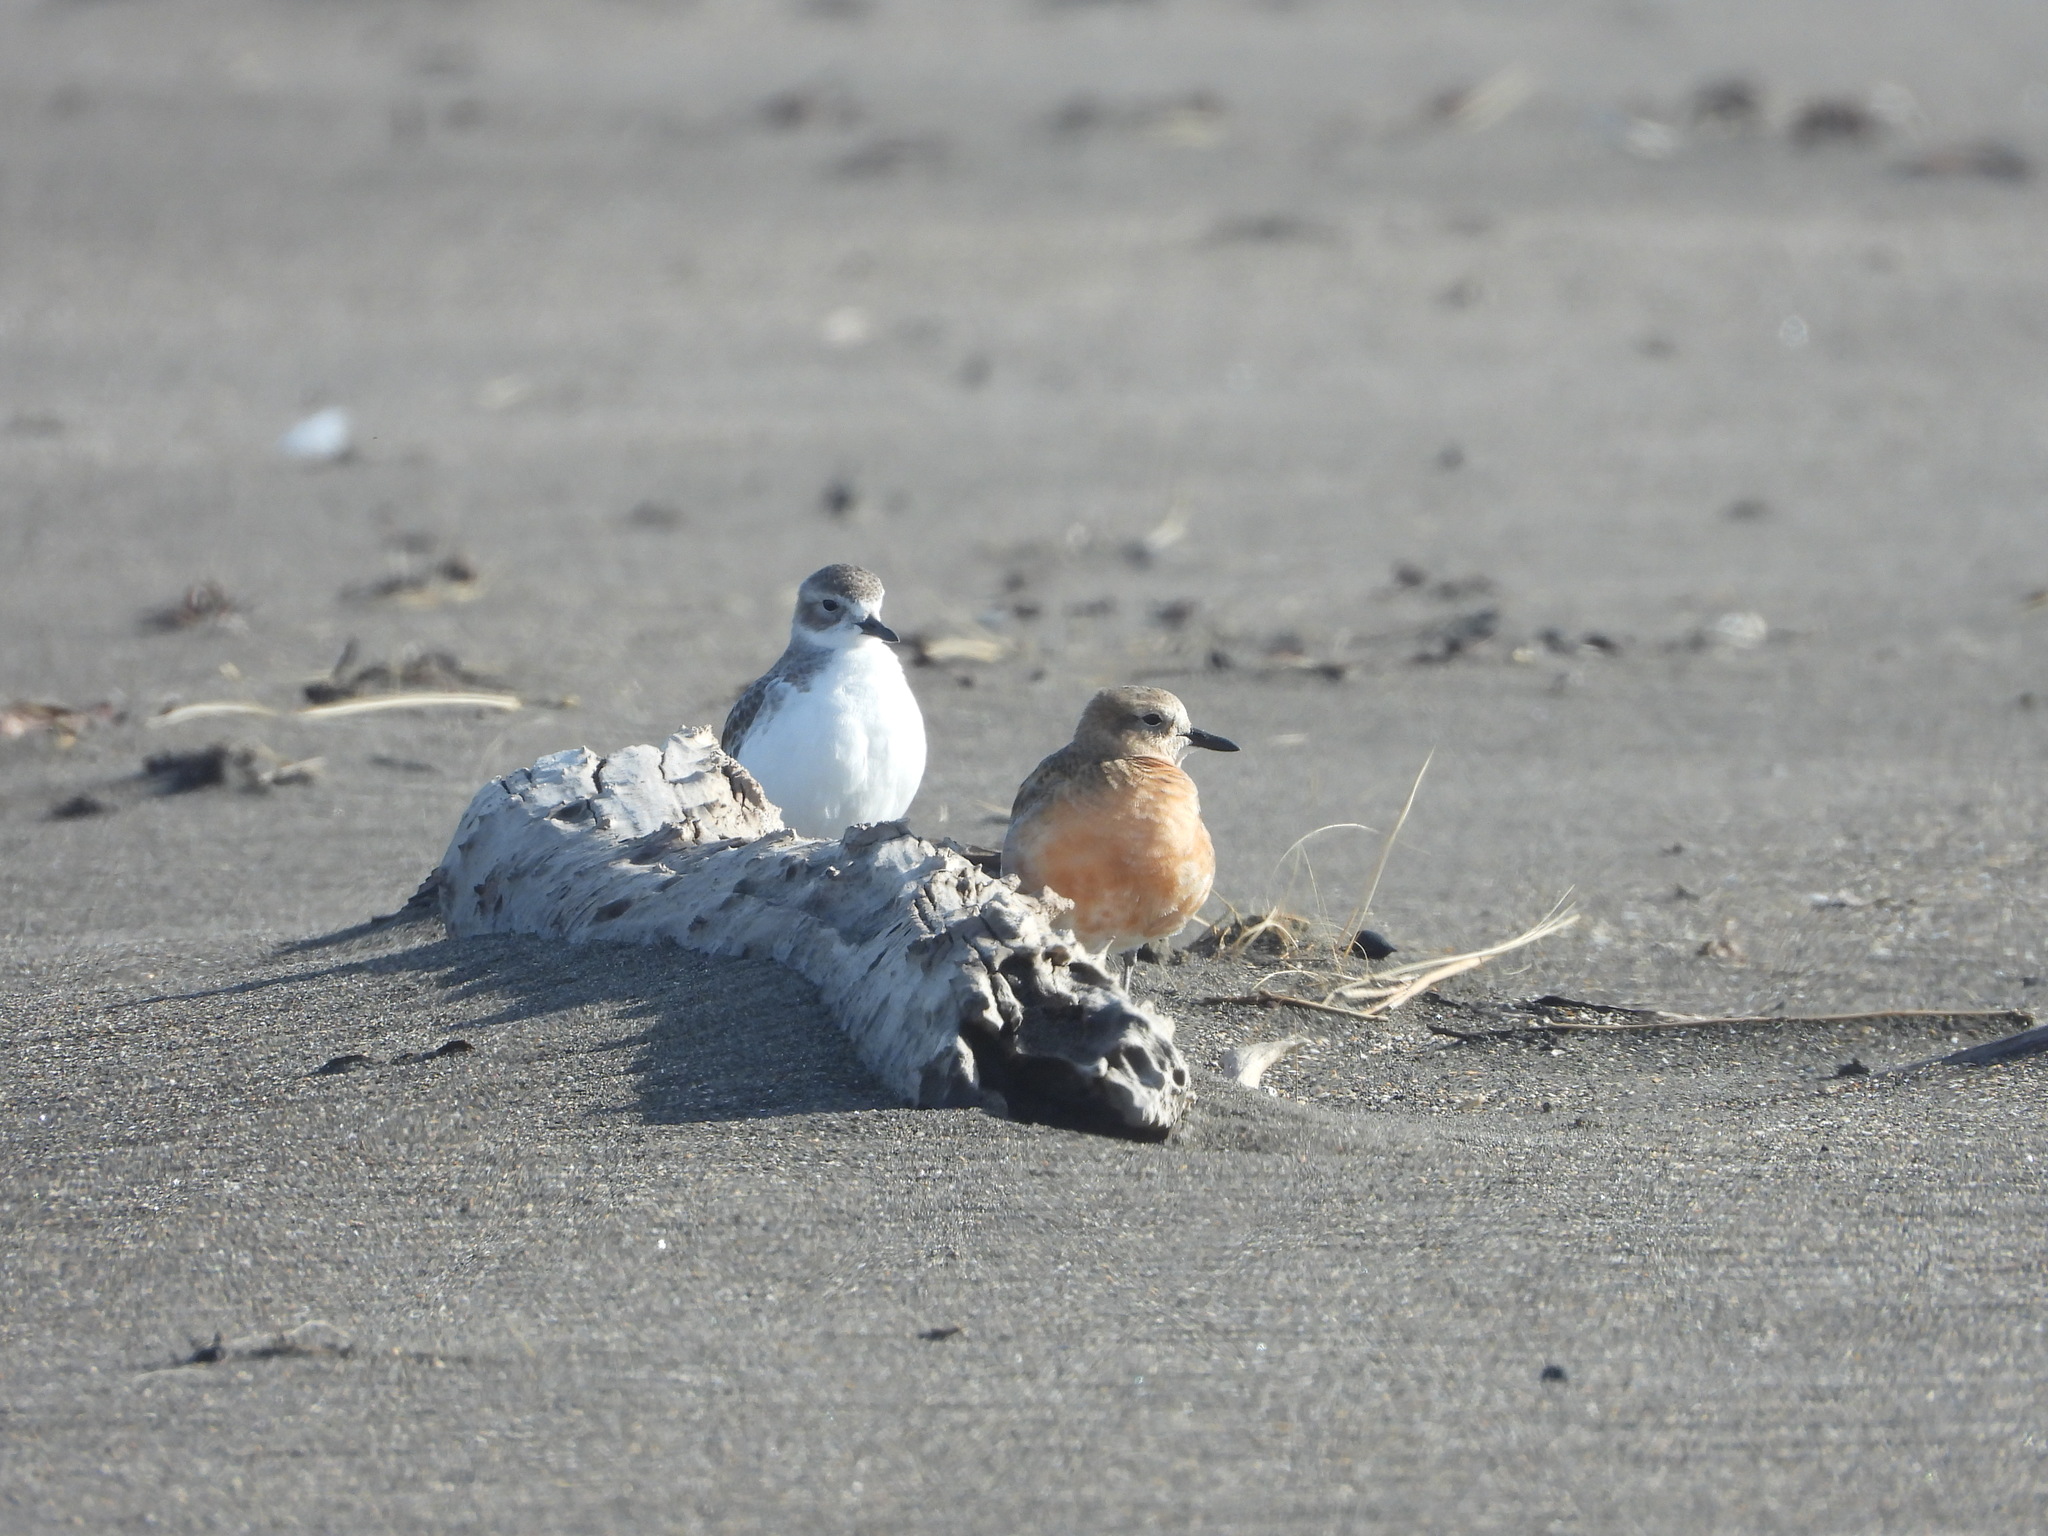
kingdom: Animalia
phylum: Chordata
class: Aves
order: Charadriiformes
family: Charadriidae
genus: Anarhynchus
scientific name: Anarhynchus
